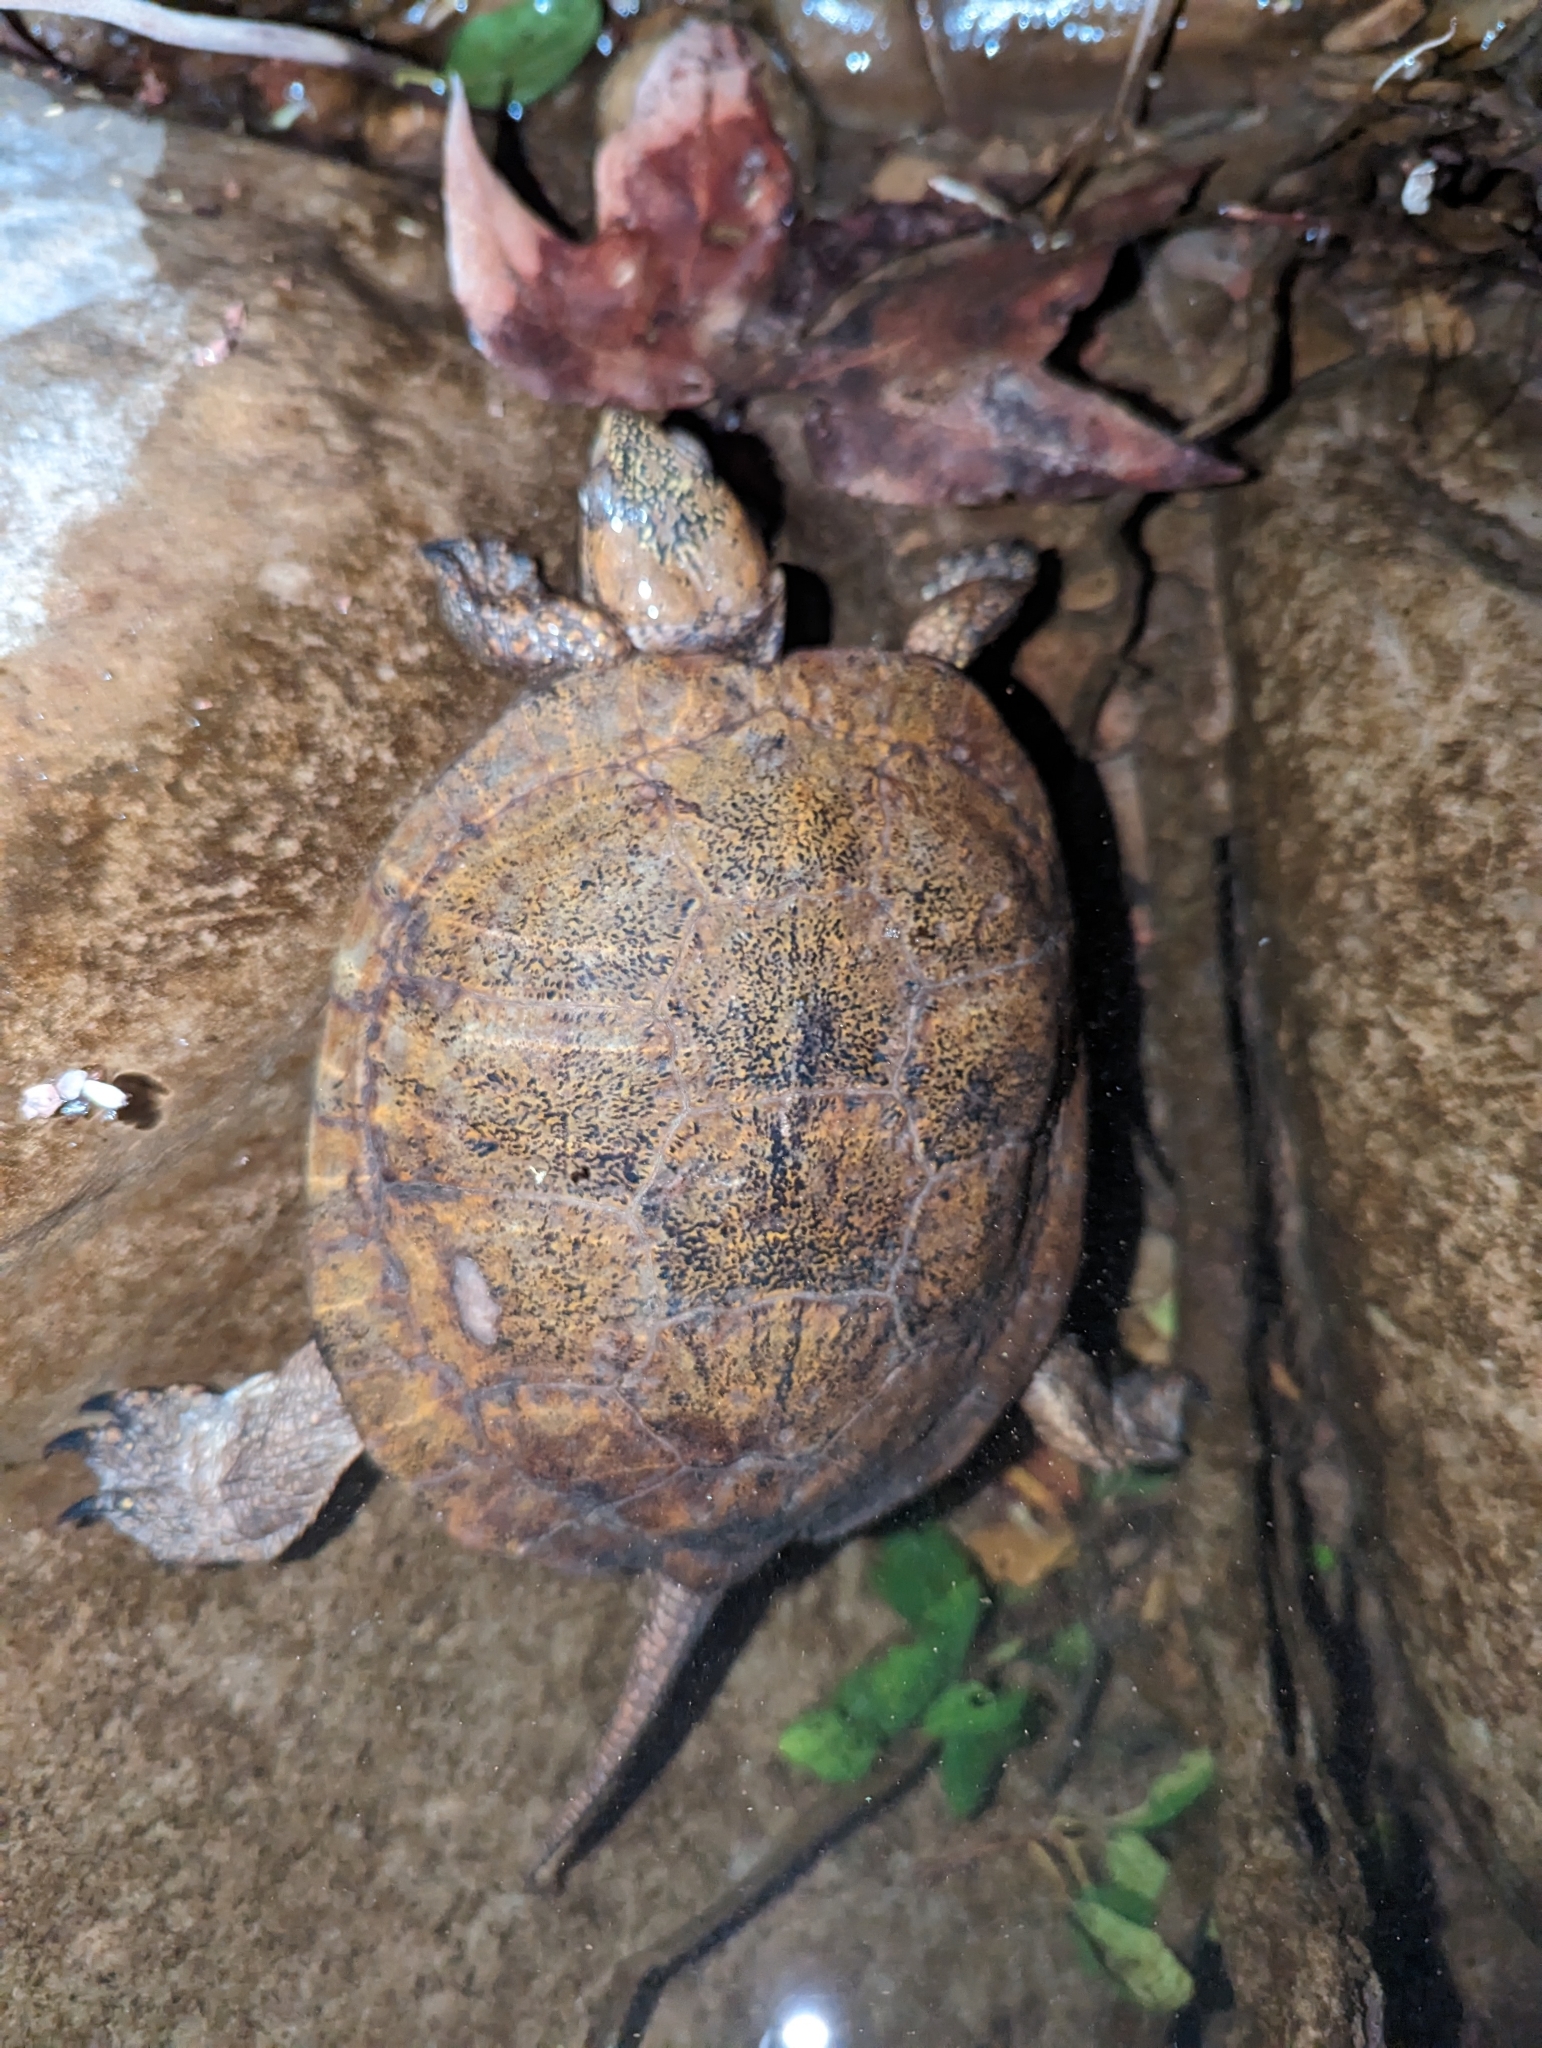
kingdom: Animalia
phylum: Chordata
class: Testudines
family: Emydidae
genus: Actinemys
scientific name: Actinemys pallida
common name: Southern pacific pond turtle
